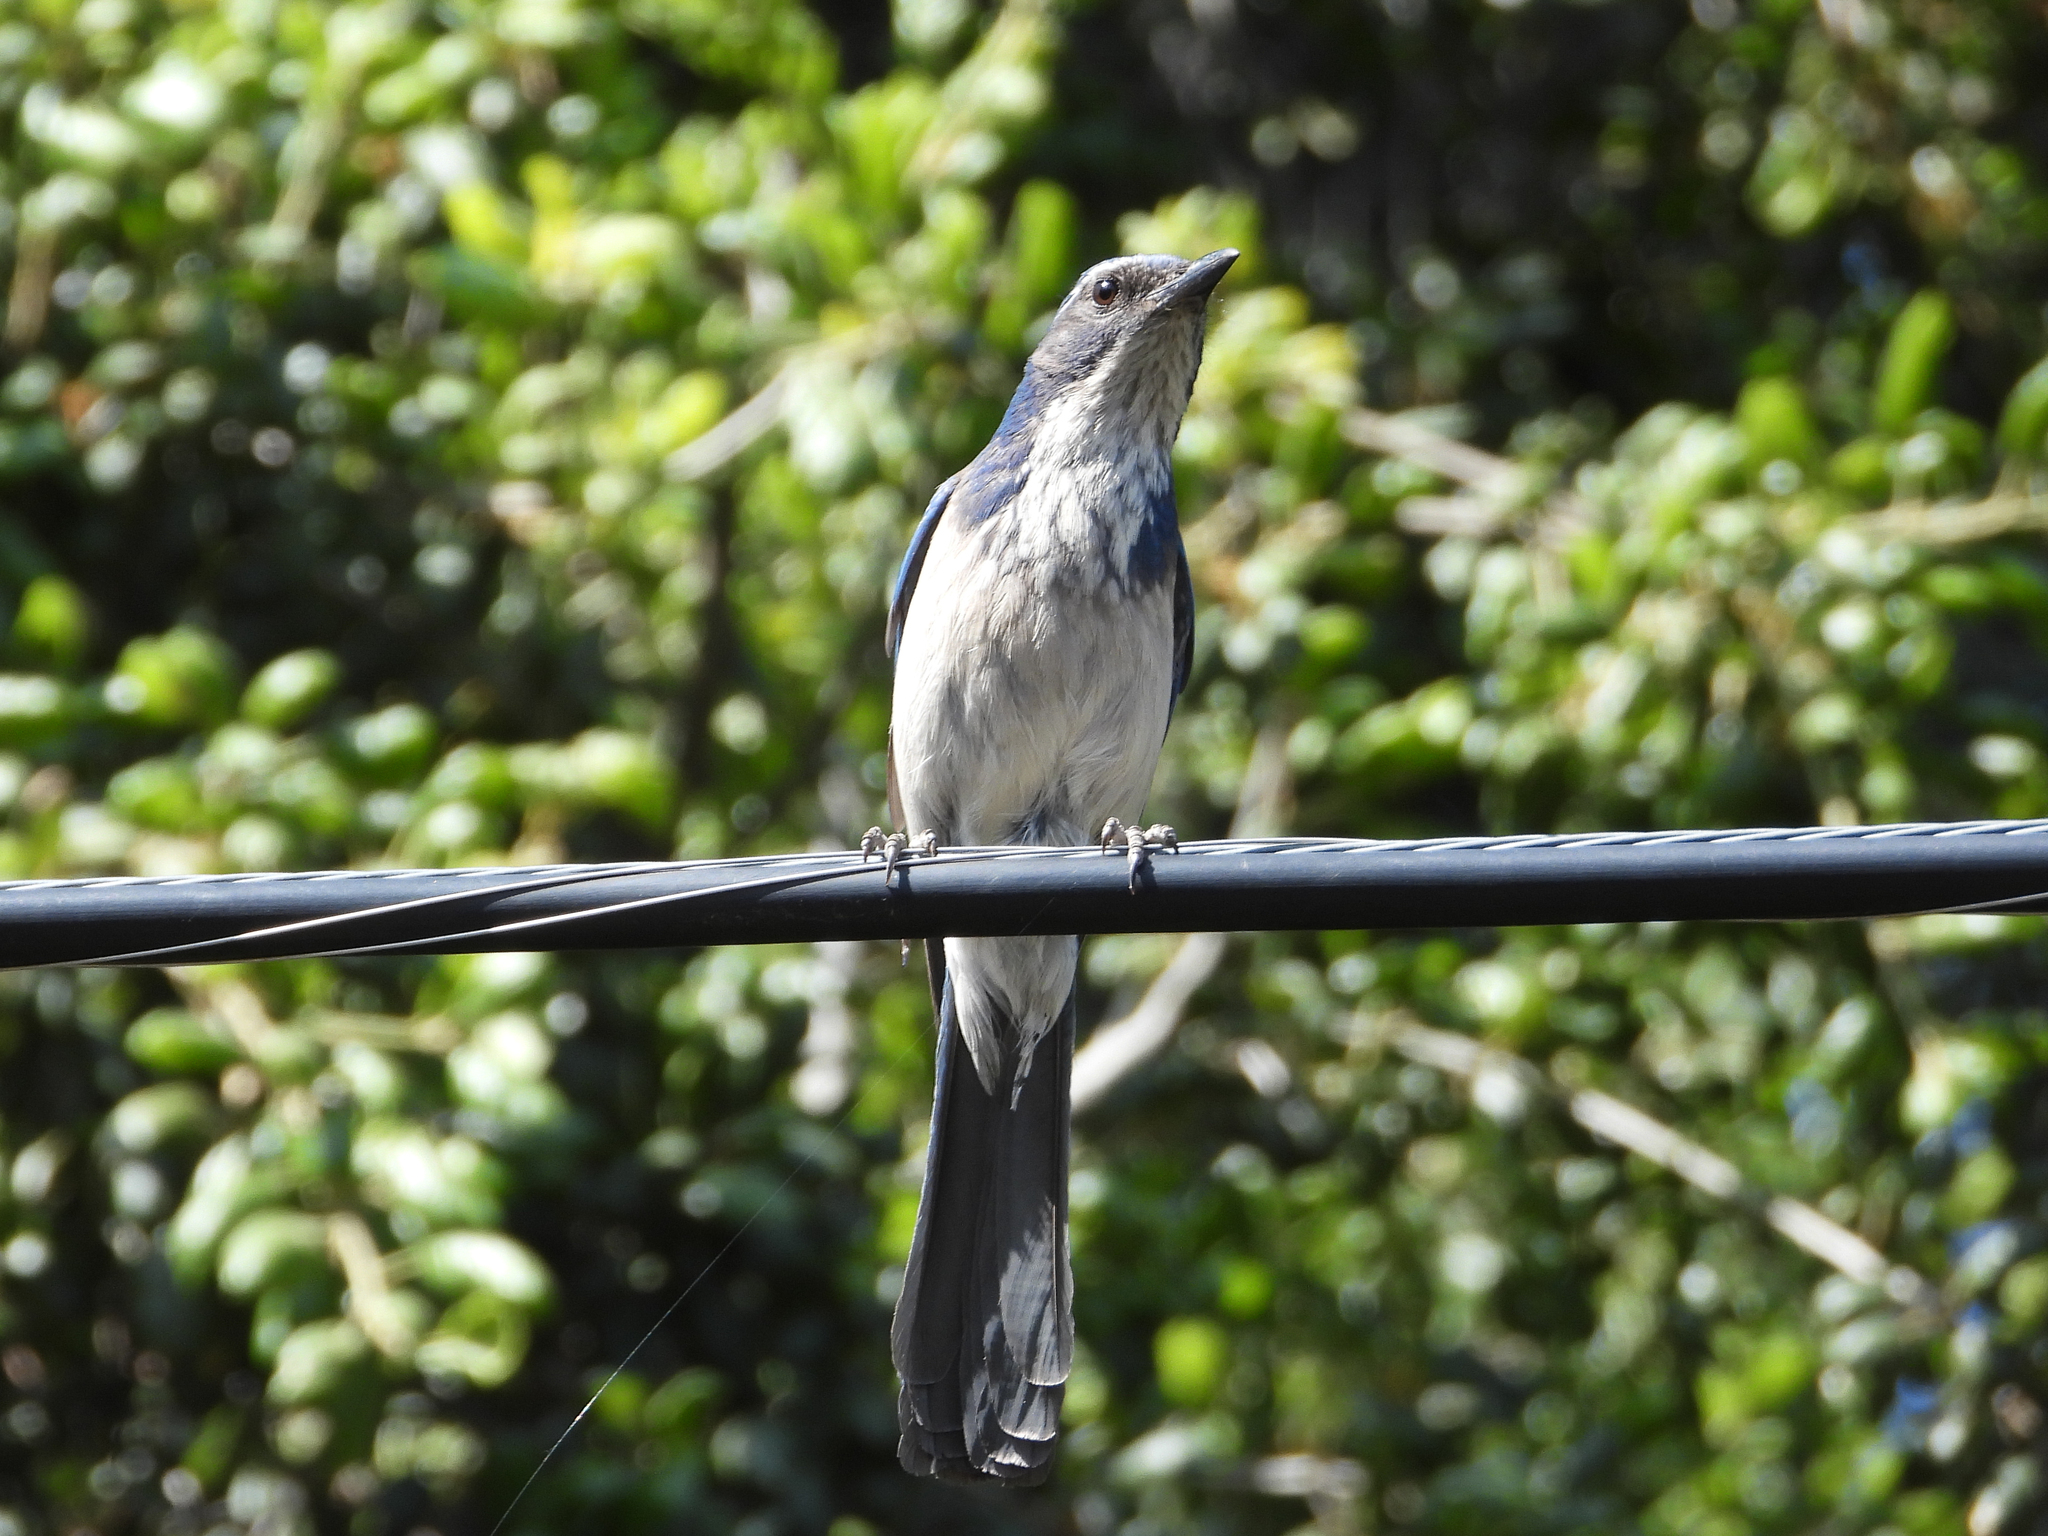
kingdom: Animalia
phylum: Chordata
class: Aves
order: Passeriformes
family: Corvidae
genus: Aphelocoma
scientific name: Aphelocoma californica
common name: California scrub-jay
